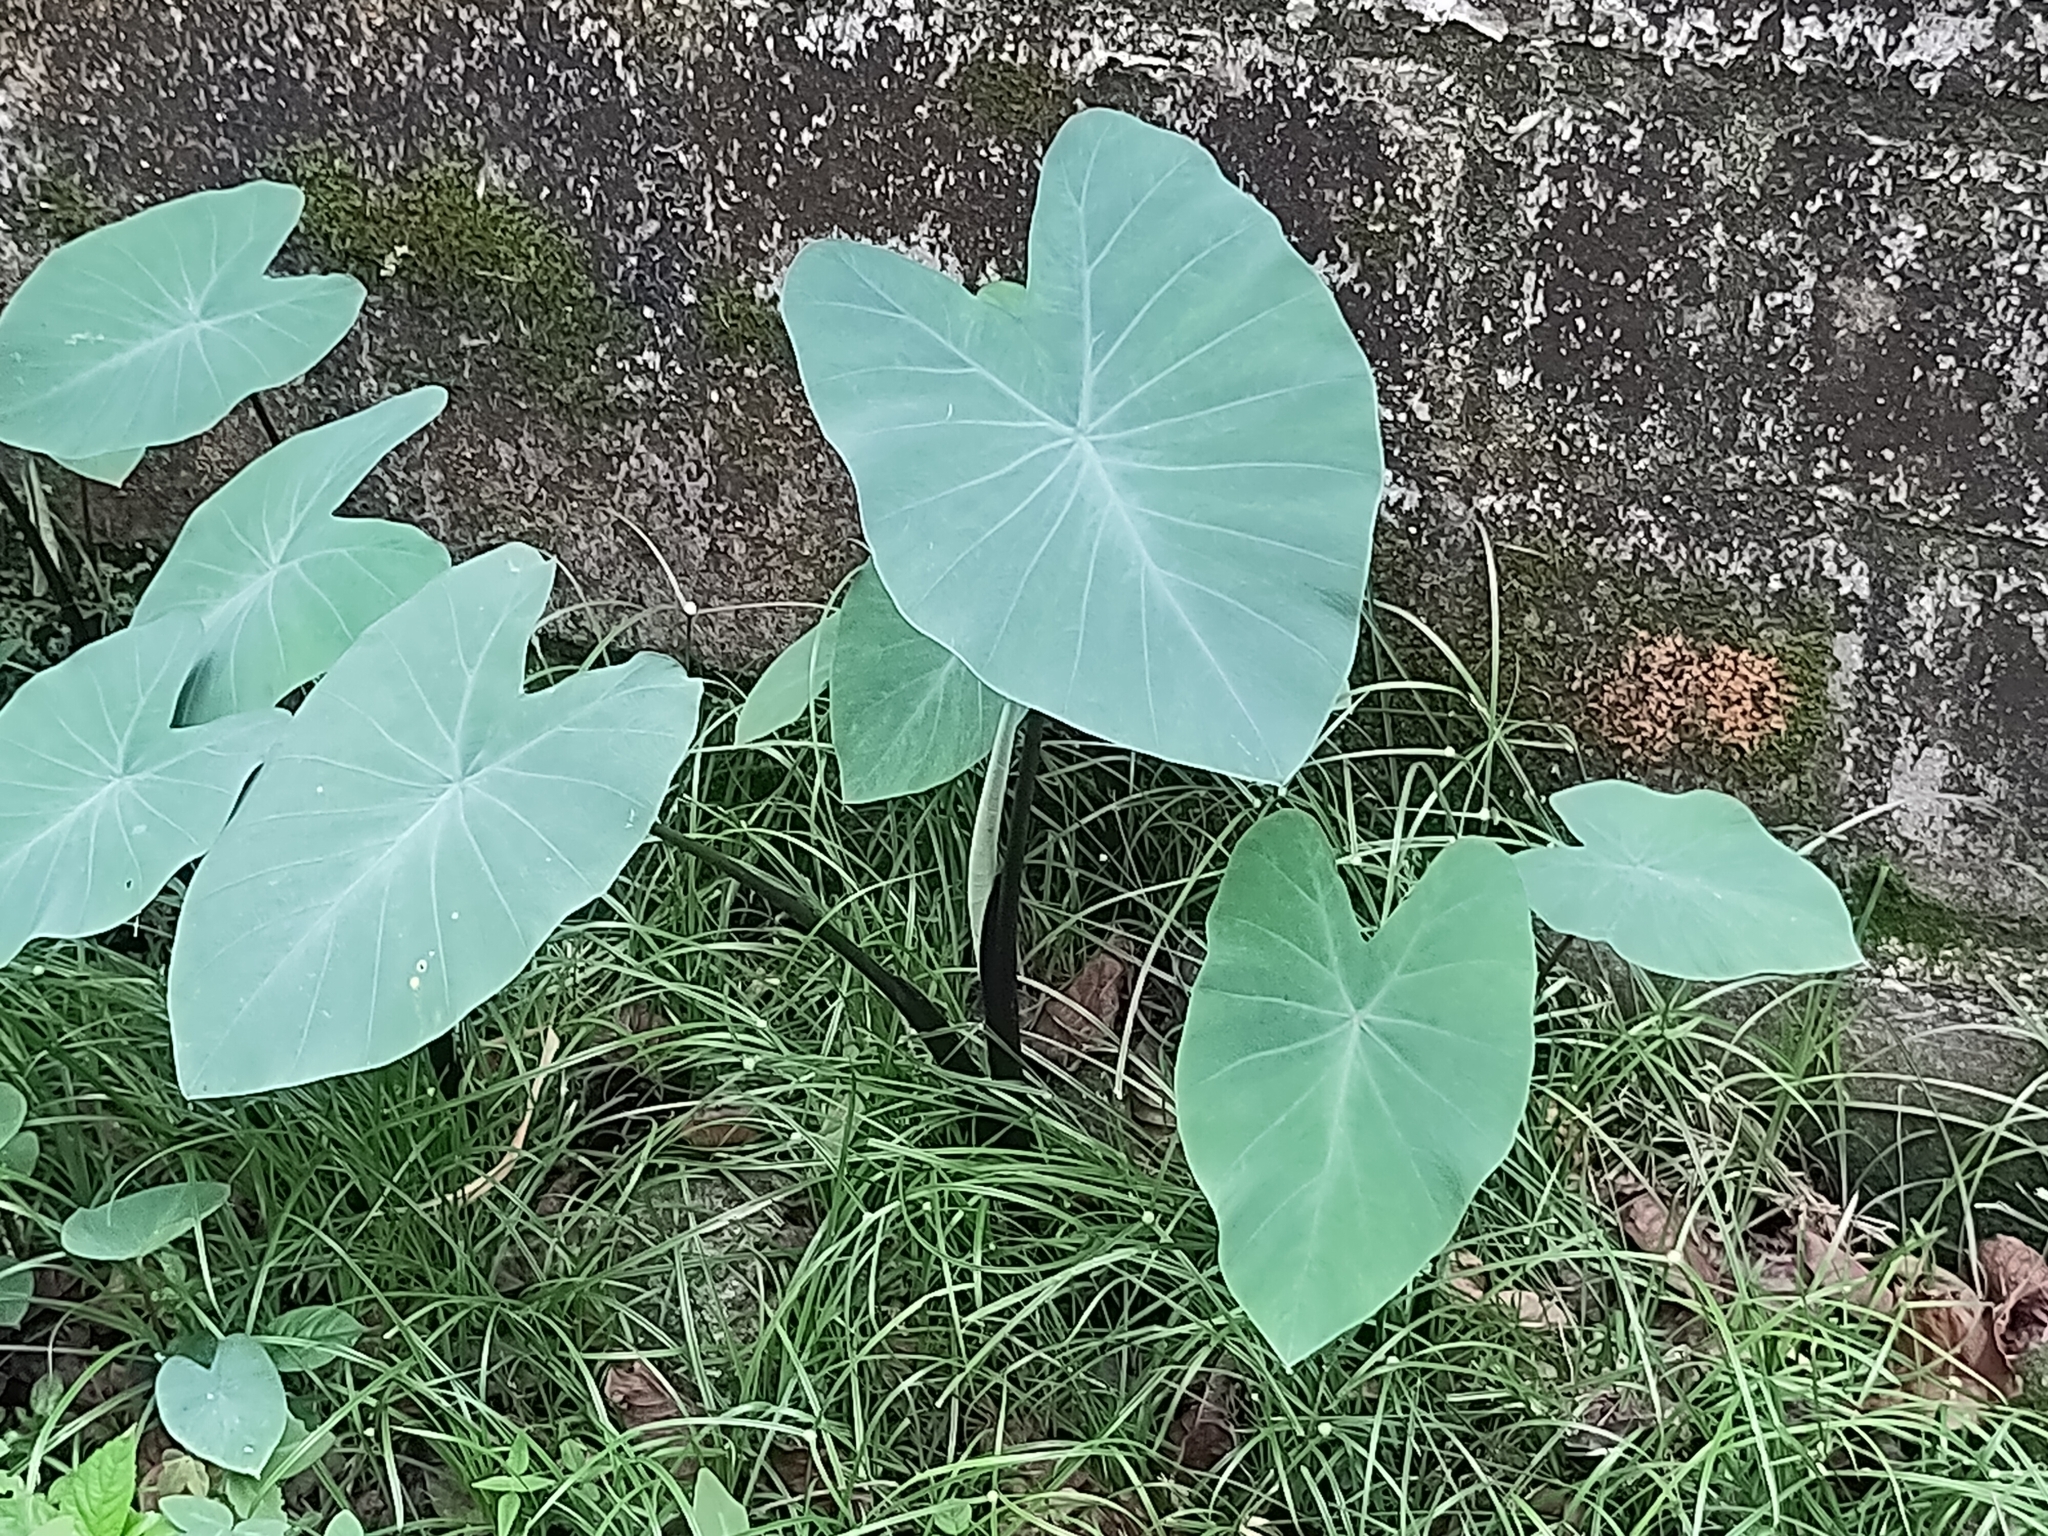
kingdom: Plantae
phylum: Tracheophyta
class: Liliopsida
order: Alismatales
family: Araceae
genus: Colocasia
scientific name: Colocasia esculenta
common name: Taro
